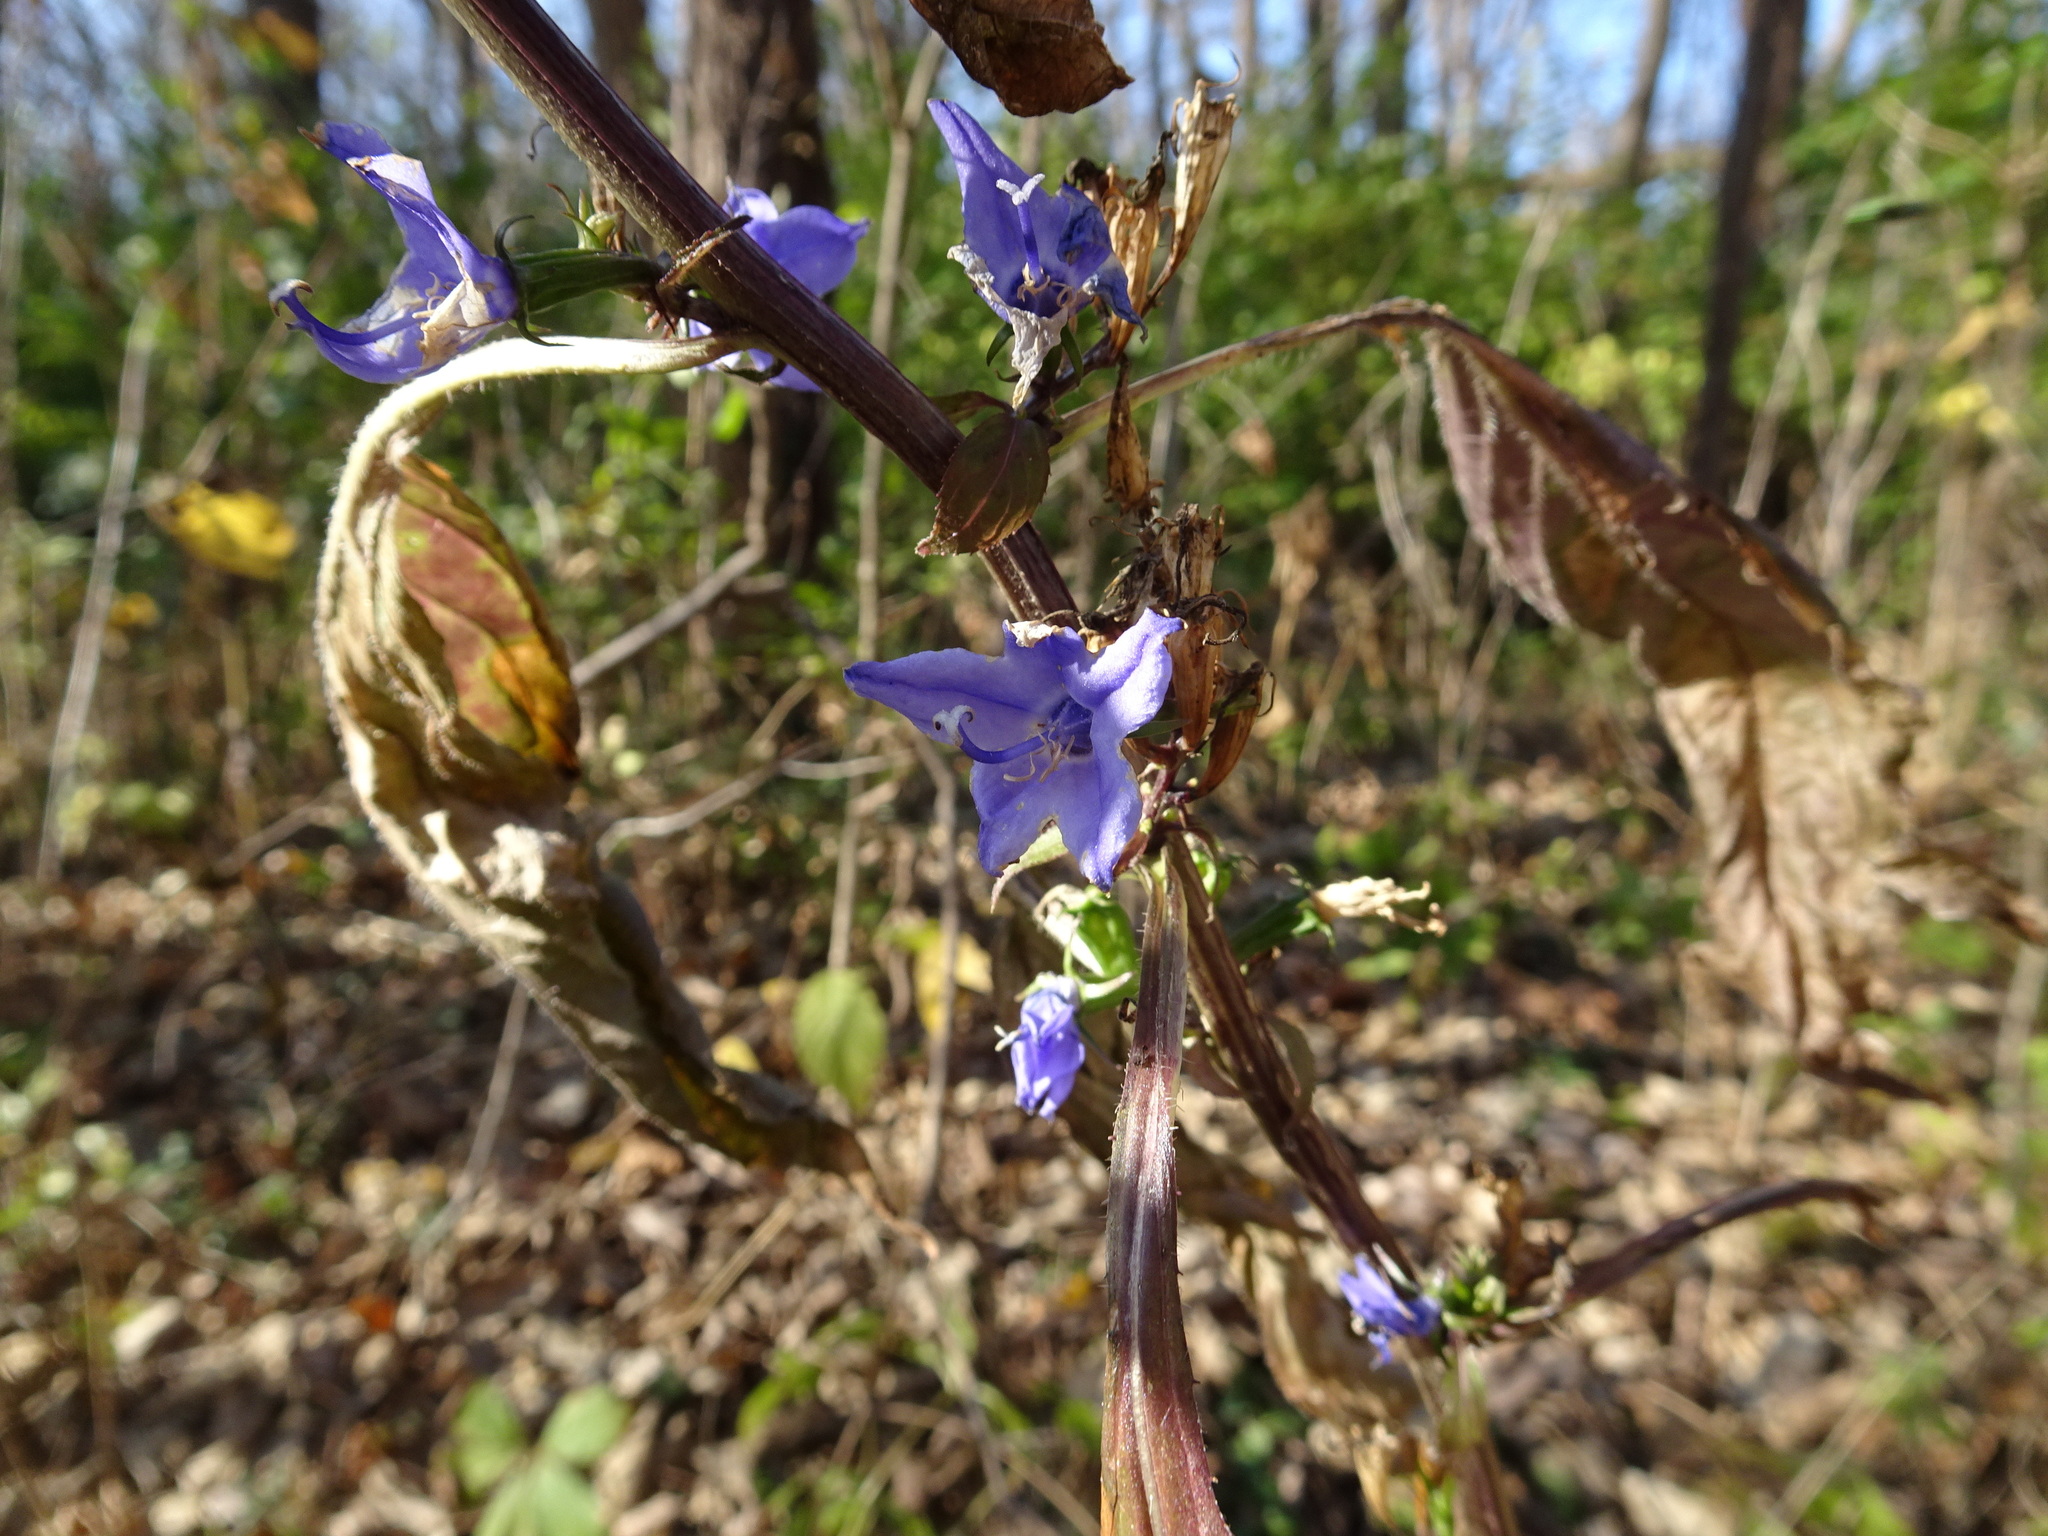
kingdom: Plantae
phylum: Tracheophyta
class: Magnoliopsida
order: Asterales
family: Campanulaceae
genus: Campanulastrum
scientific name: Campanulastrum americanum
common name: American bellflower
